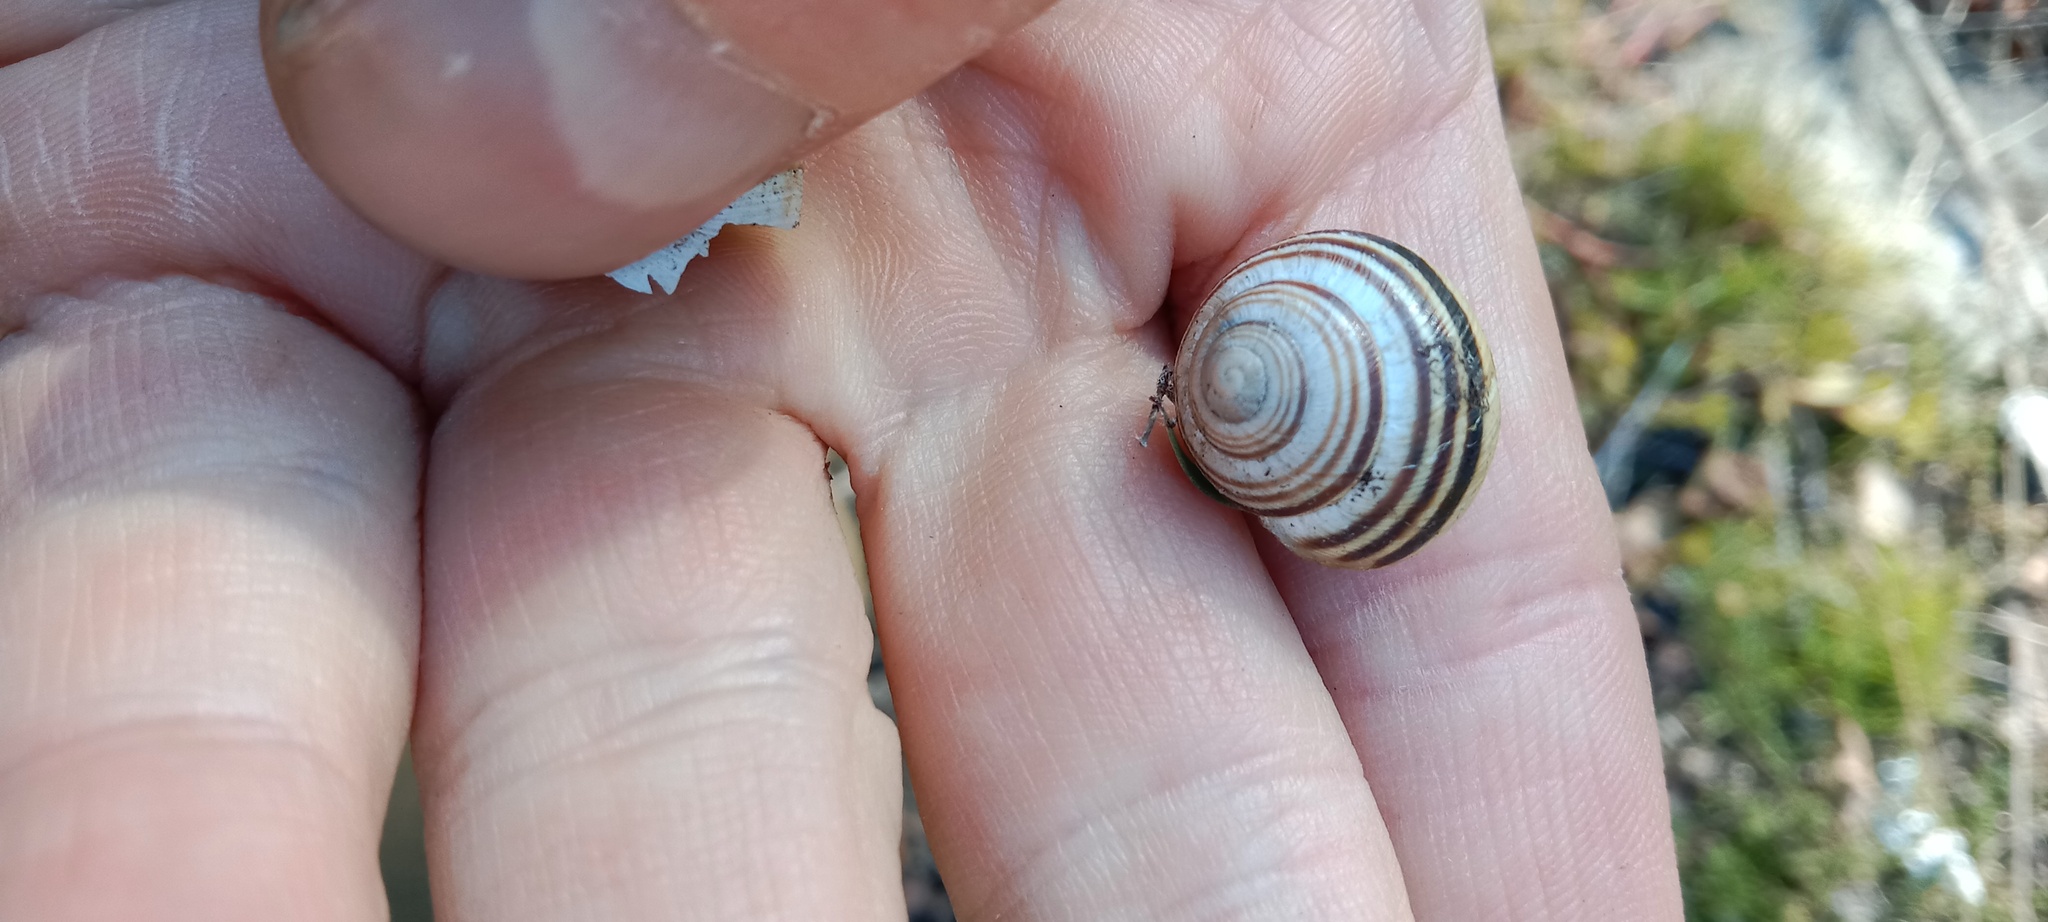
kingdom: Animalia
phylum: Mollusca
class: Gastropoda
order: Stylommatophora
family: Helicidae
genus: Caucasotachea
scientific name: Caucasotachea vindobonensis
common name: European helicid land snail
